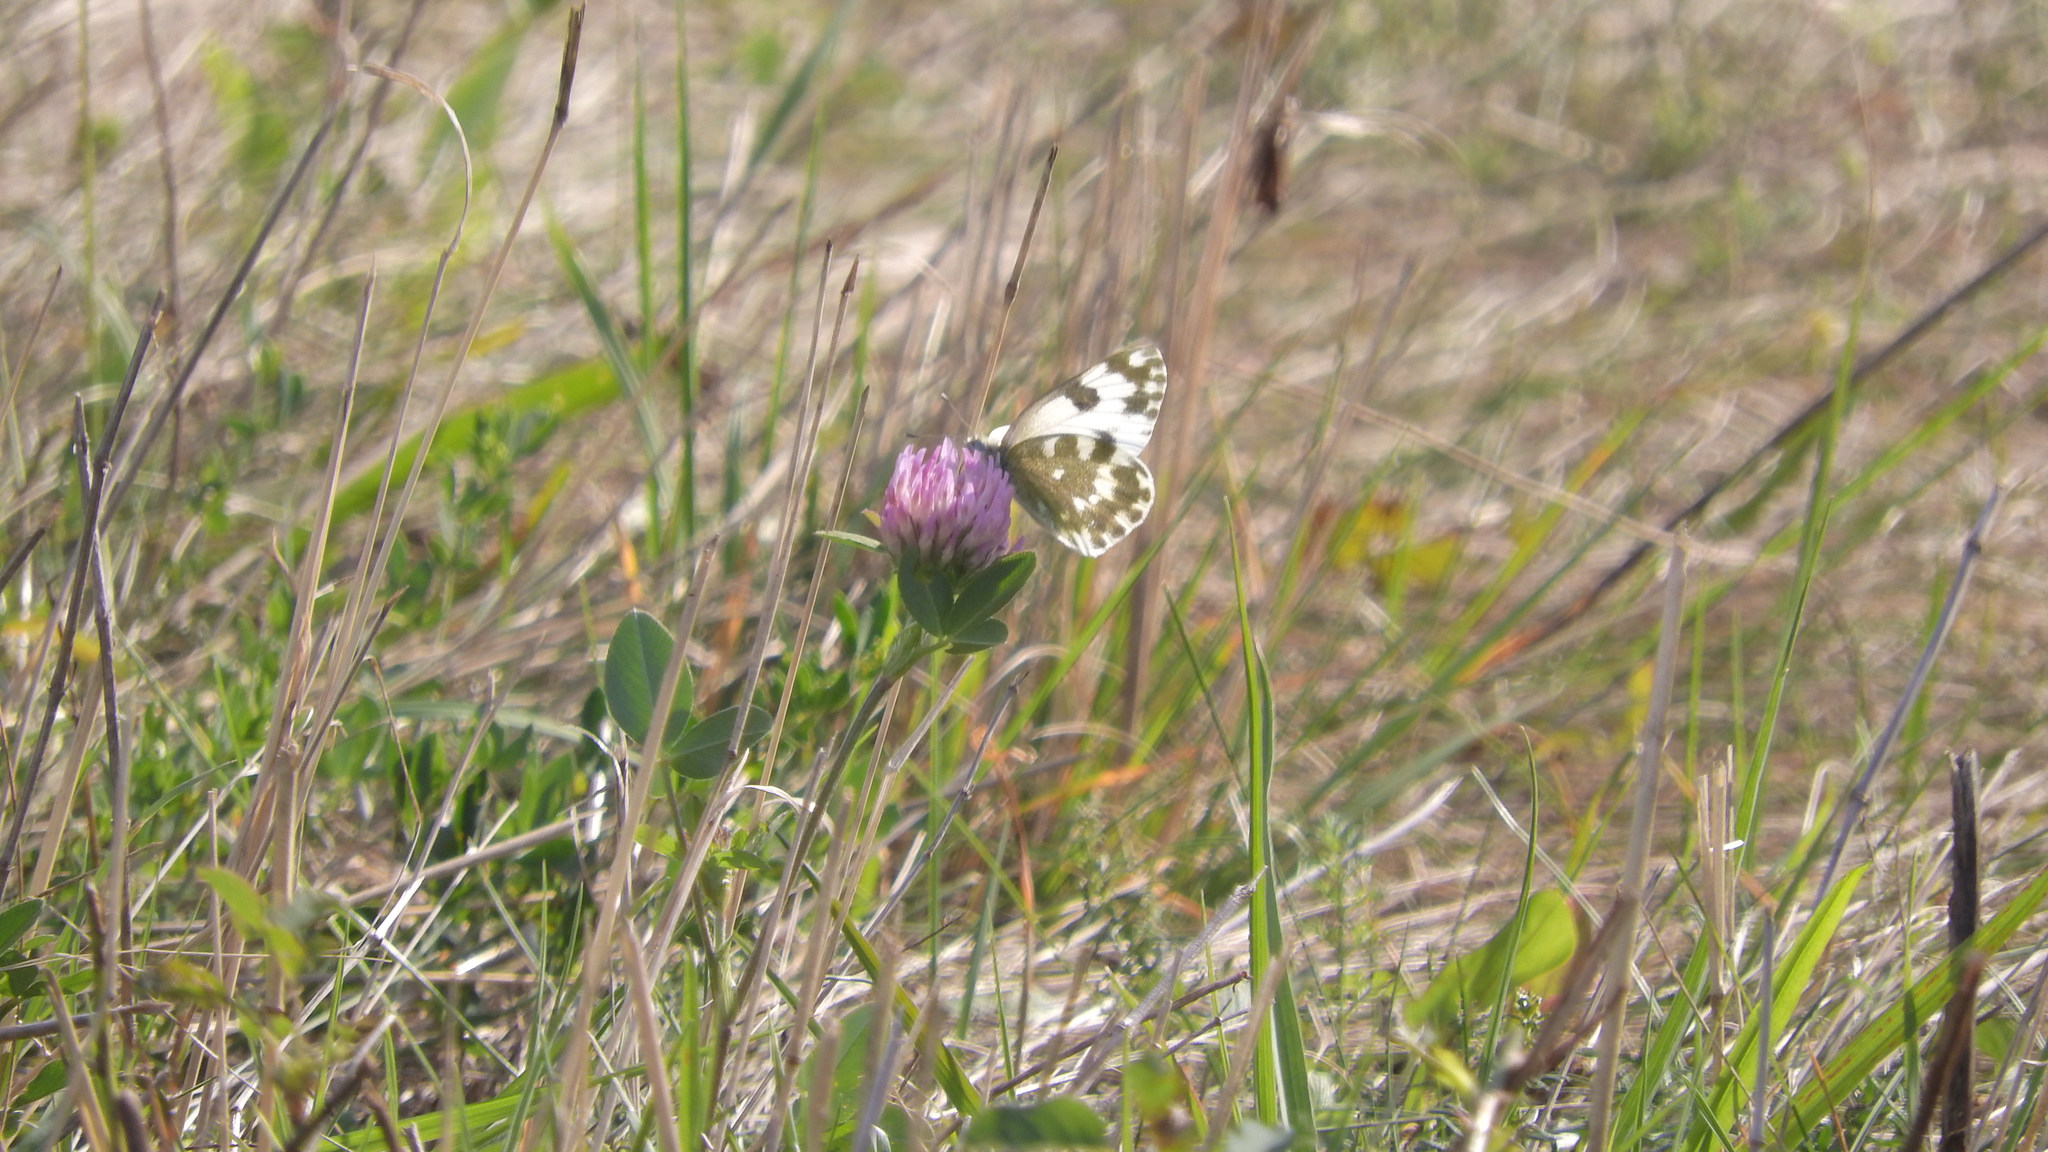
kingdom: Animalia
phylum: Arthropoda
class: Insecta
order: Lepidoptera
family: Pieridae
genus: Pontia
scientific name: Pontia edusa
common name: Eastern bath white
